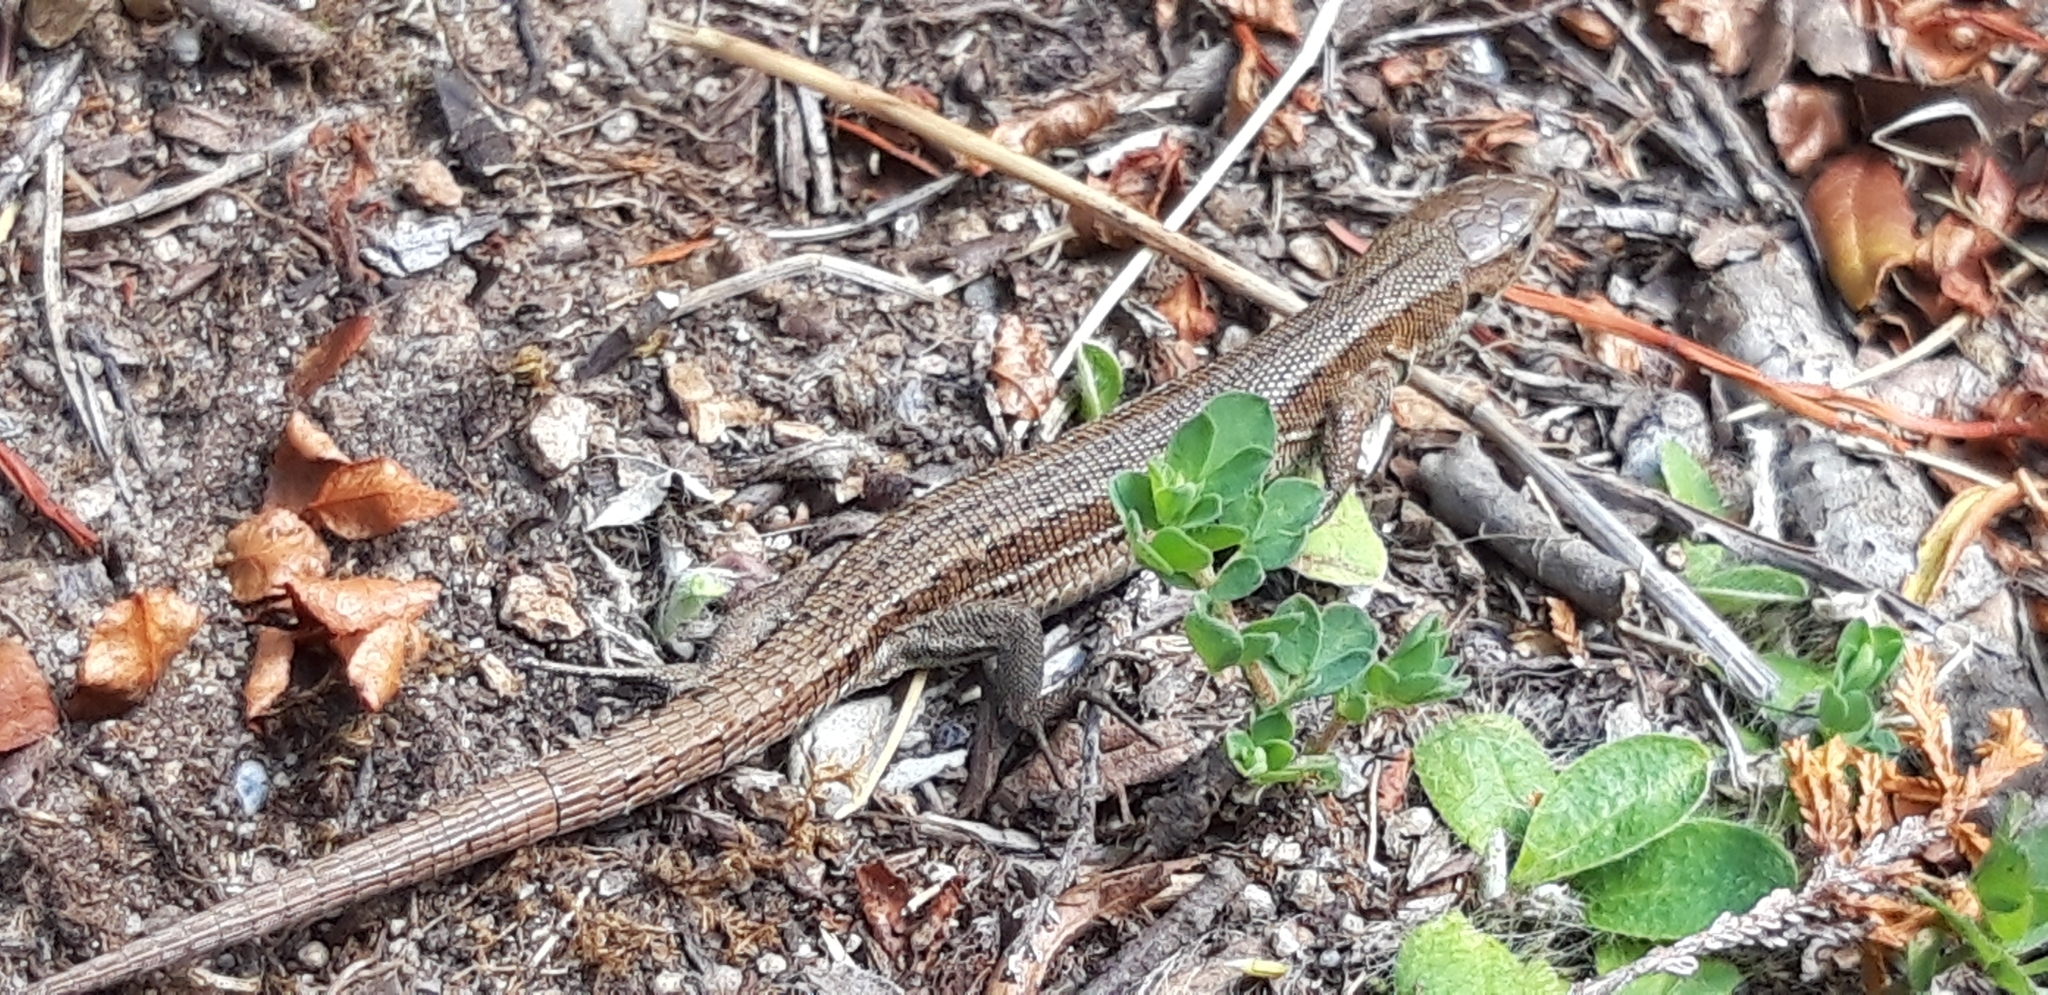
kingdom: Animalia
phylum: Chordata
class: Squamata
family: Lacertidae
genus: Zootoca
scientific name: Zootoca vivipara
